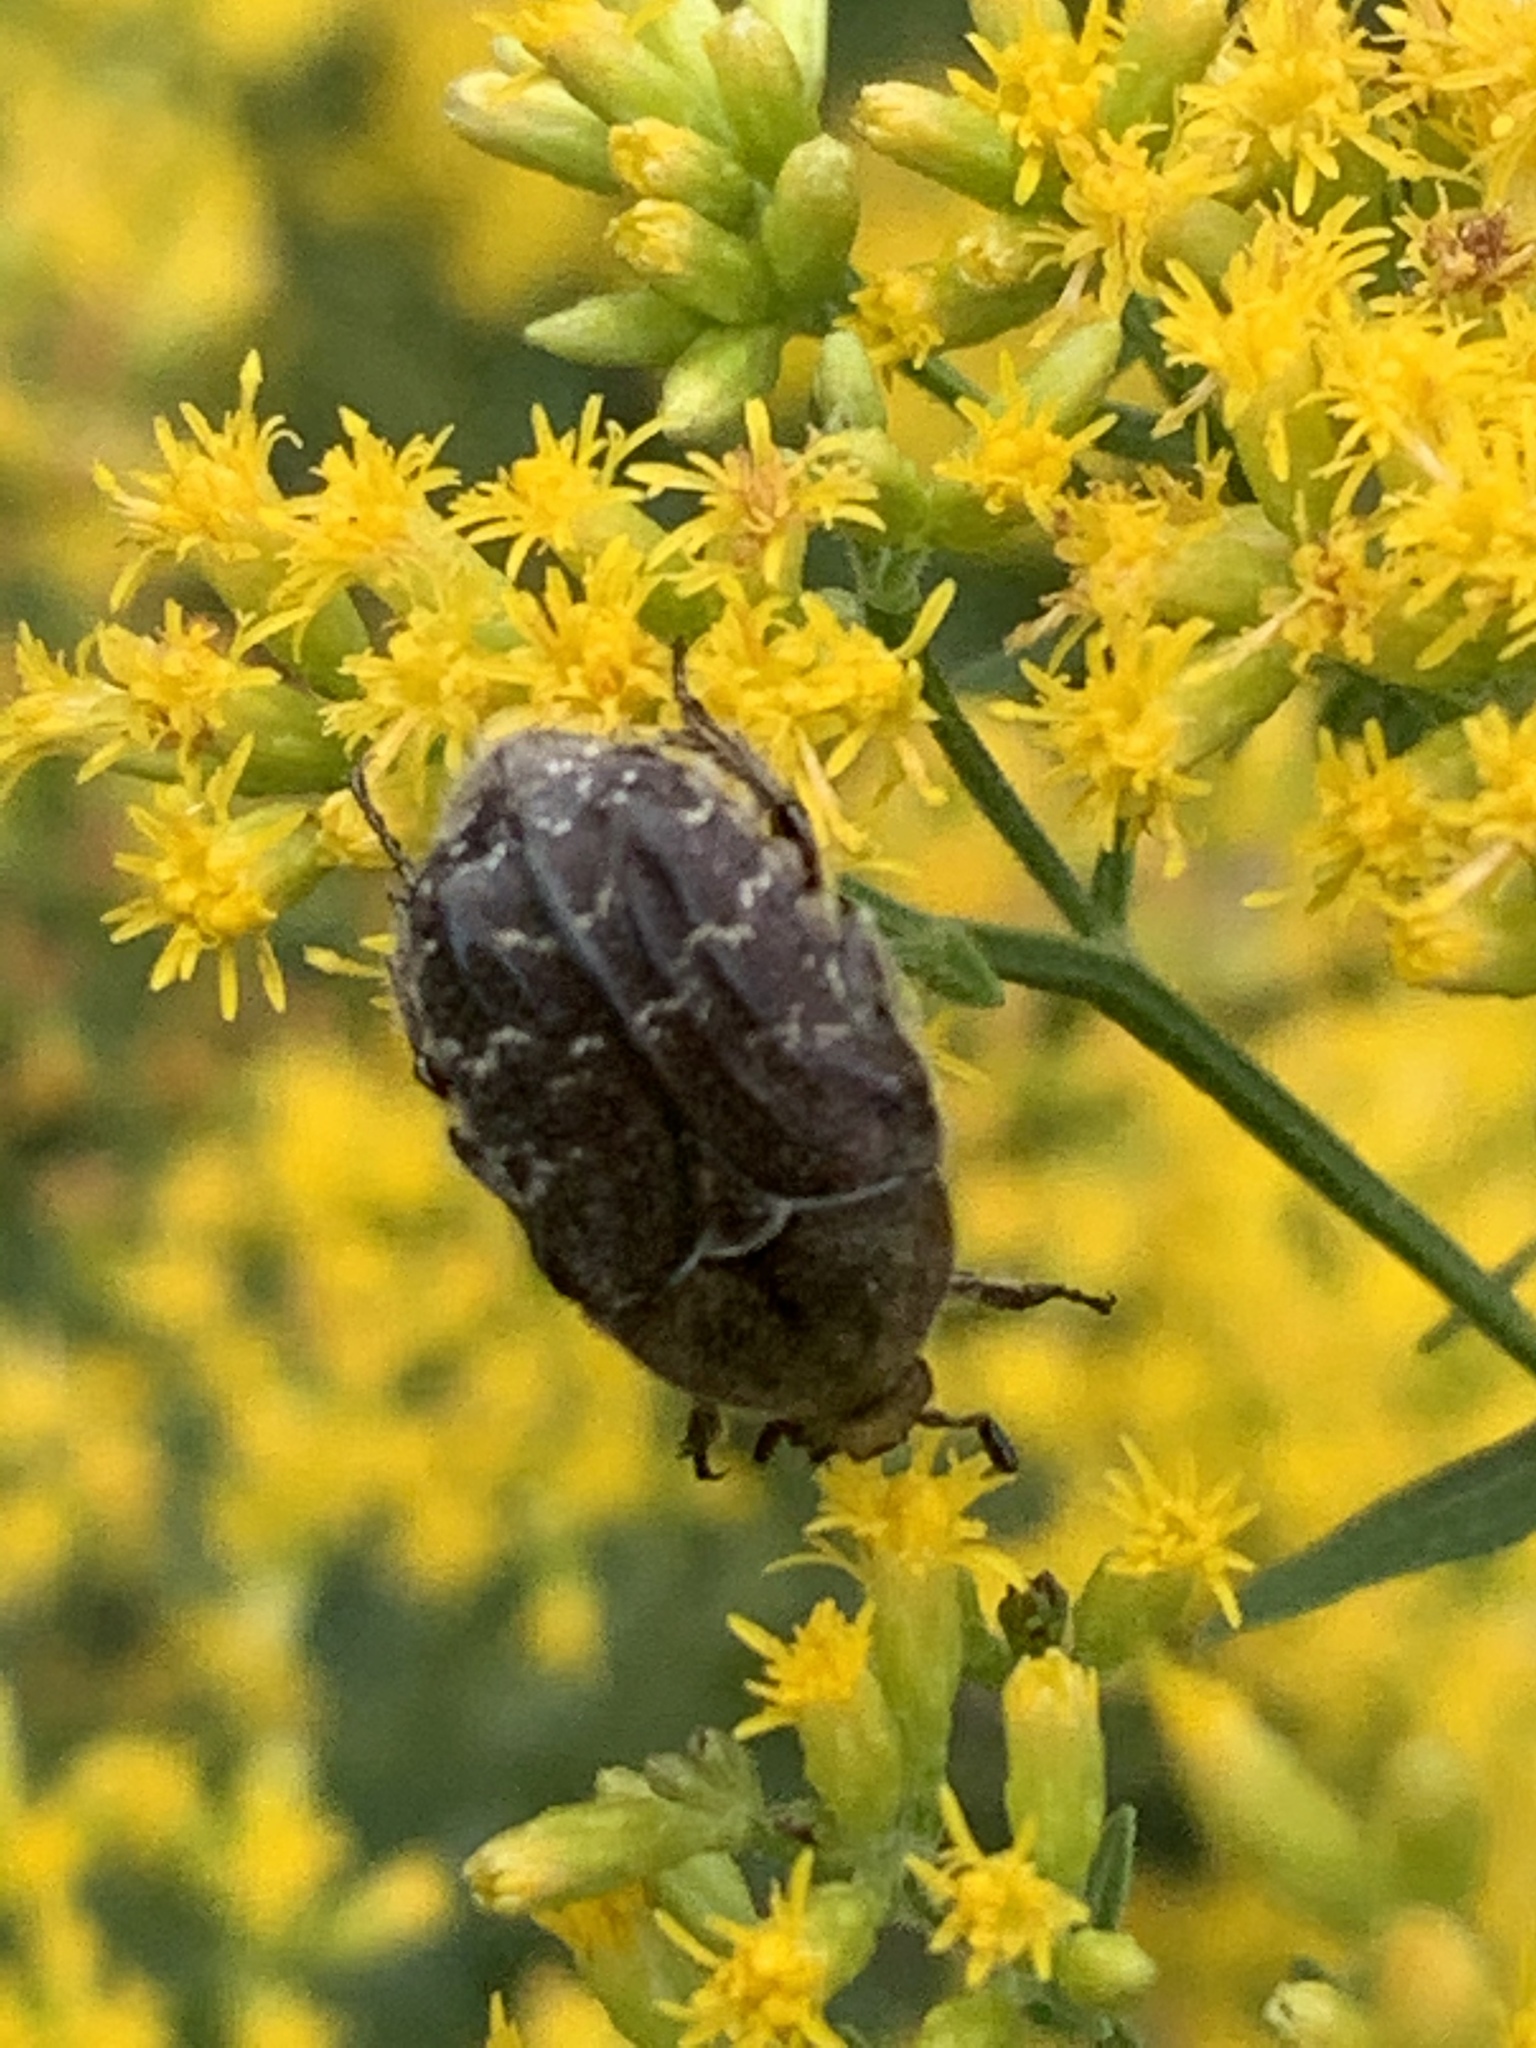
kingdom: Animalia
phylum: Arthropoda
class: Insecta
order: Coleoptera
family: Scarabaeidae
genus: Euphoria
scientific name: Euphoria sepulcralis
